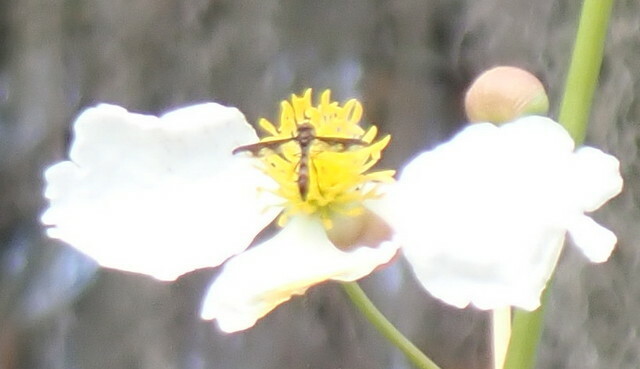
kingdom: Animalia
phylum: Arthropoda
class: Insecta
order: Diptera
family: Syrphidae
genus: Ocyptamus
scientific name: Ocyptamus fuscipennis
